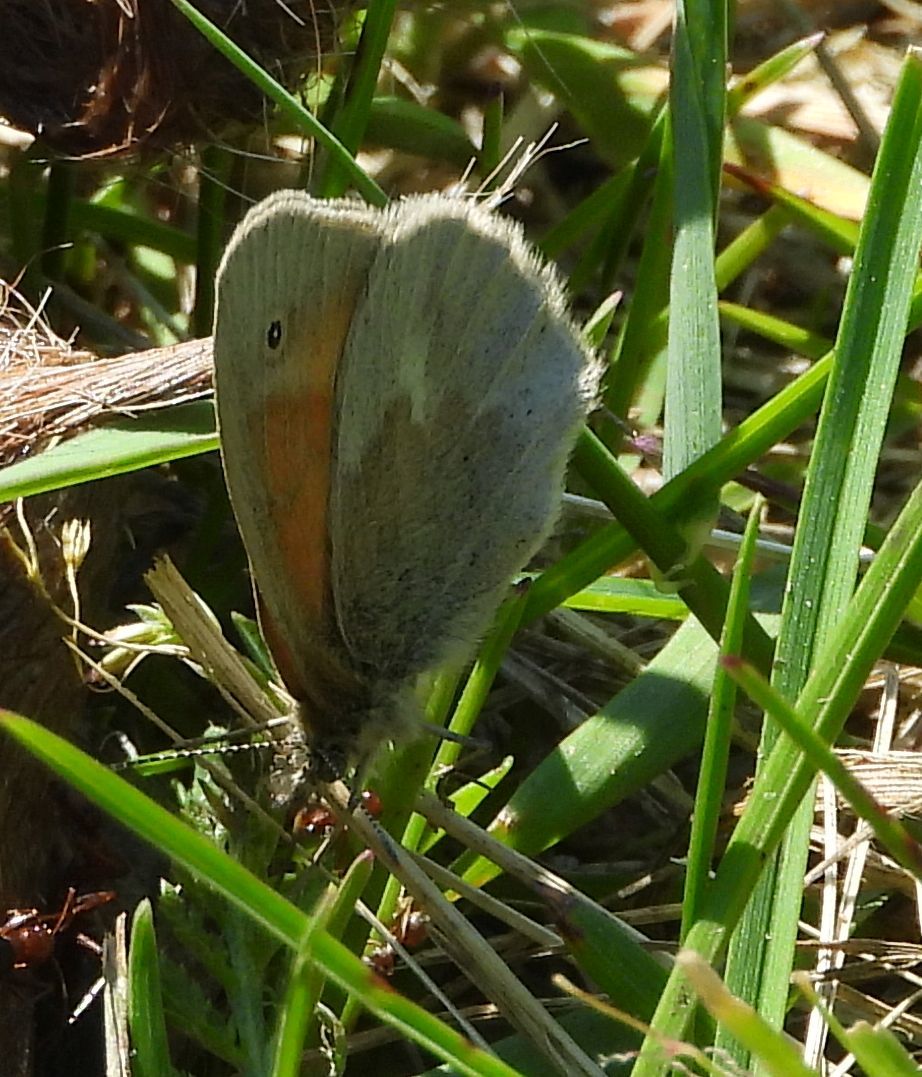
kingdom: Animalia
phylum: Arthropoda
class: Insecta
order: Lepidoptera
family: Nymphalidae
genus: Coenonympha
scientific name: Coenonympha california
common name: Common ringlet
